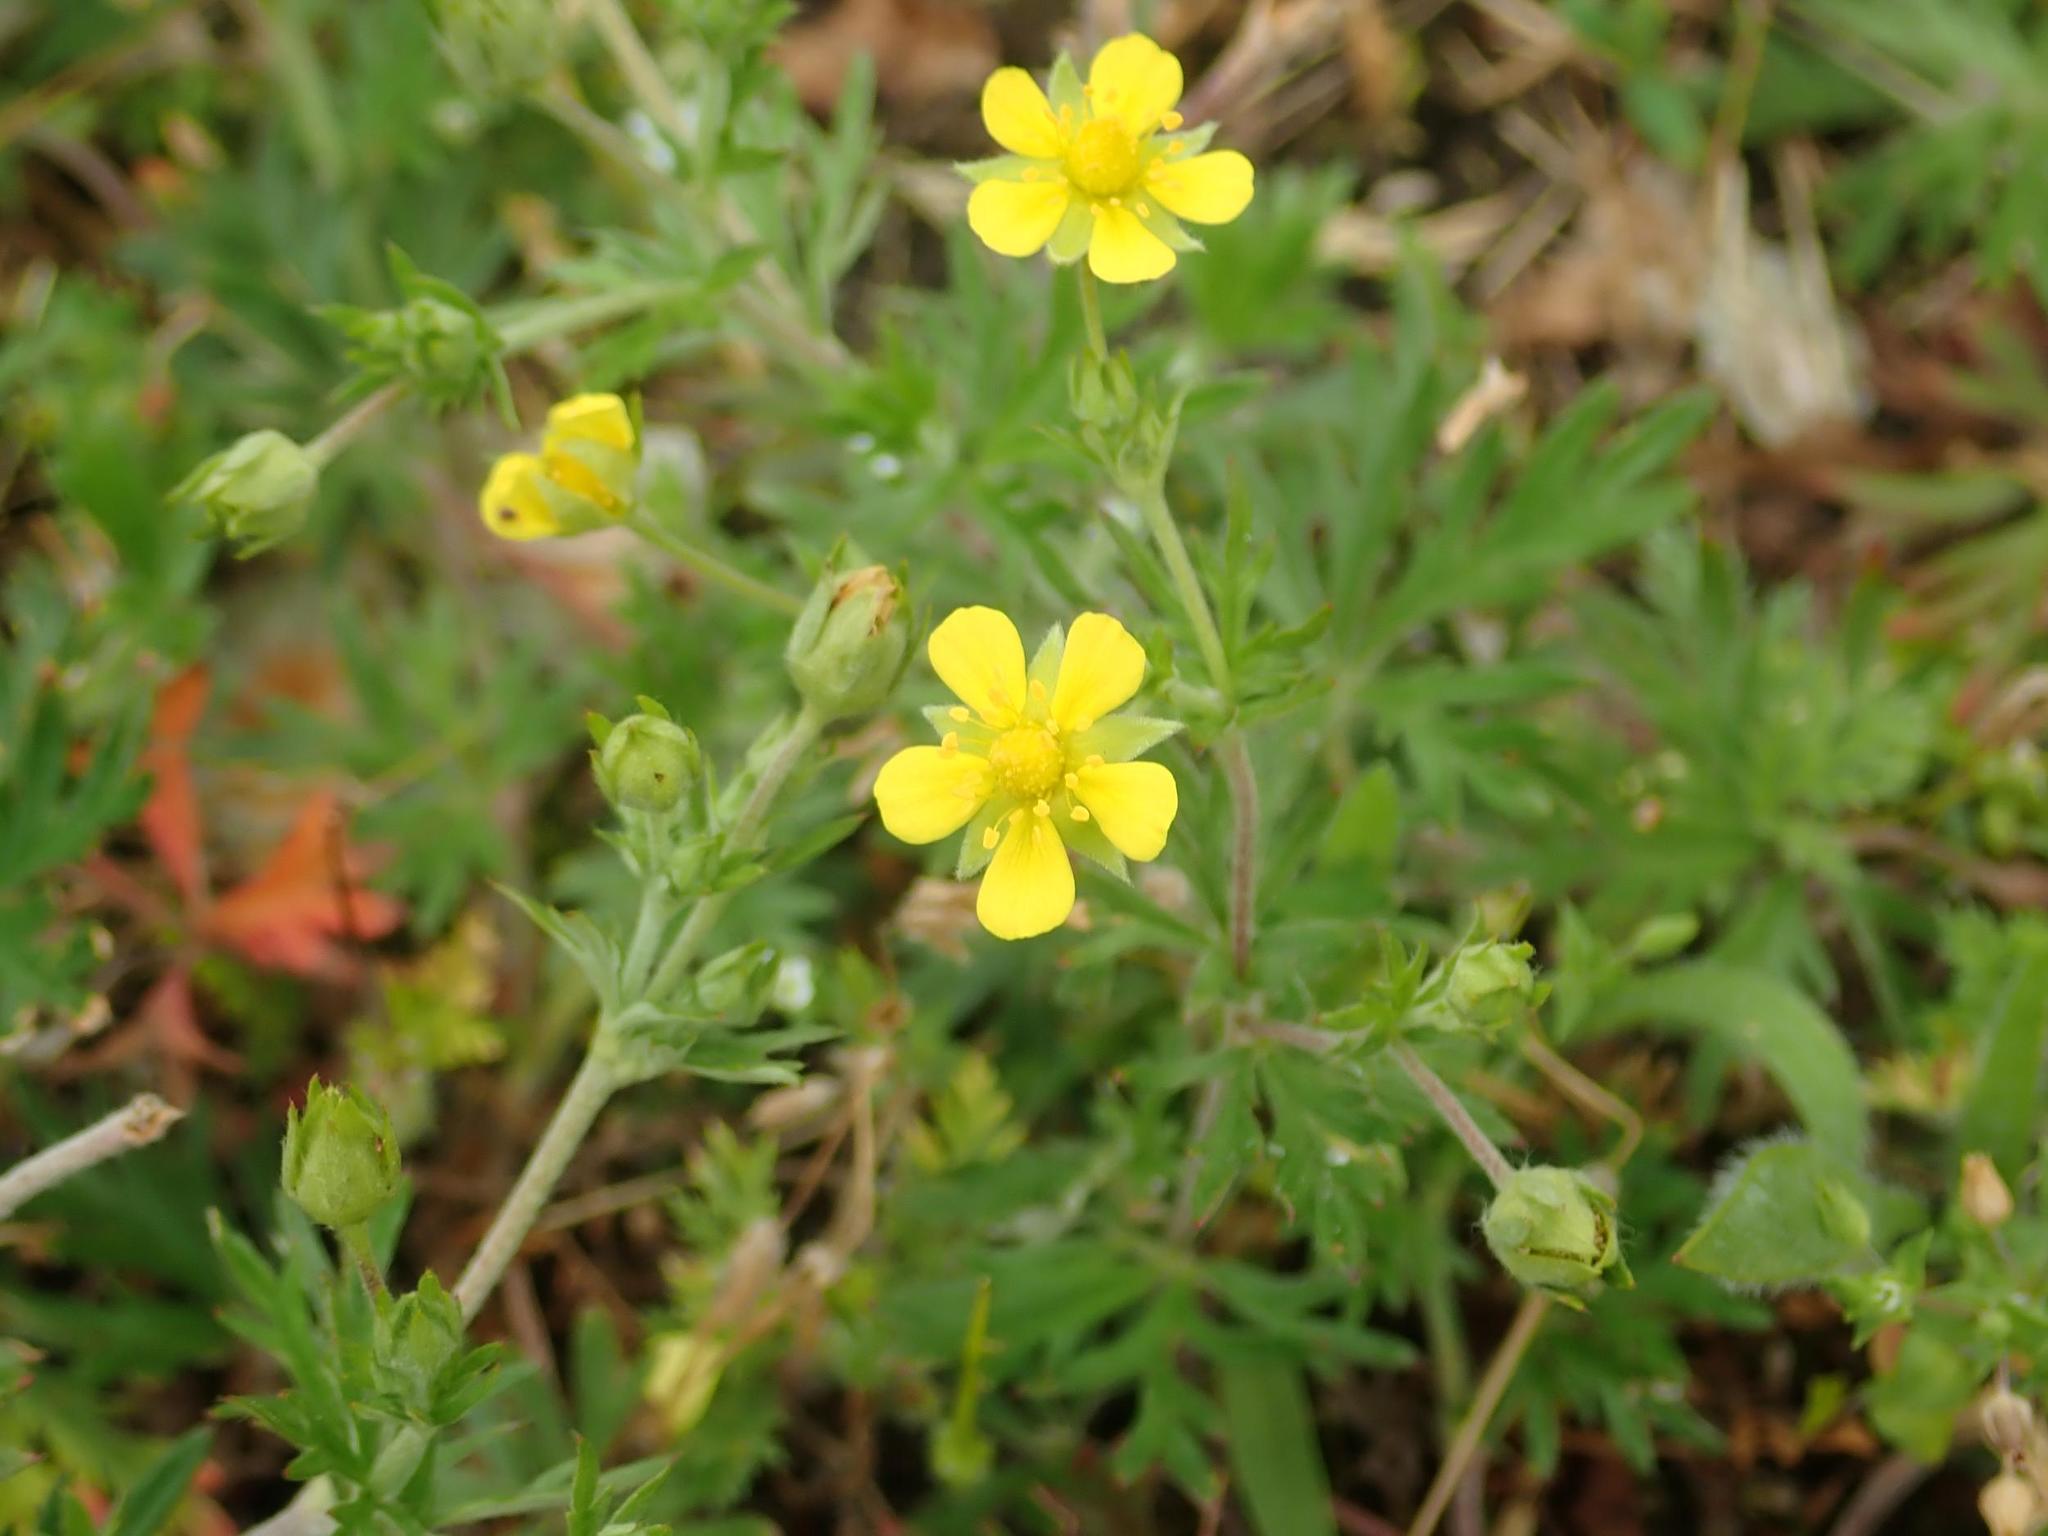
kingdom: Plantae
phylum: Tracheophyta
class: Magnoliopsida
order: Rosales
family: Rosaceae
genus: Potentilla
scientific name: Potentilla argentea
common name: Hoary cinquefoil
